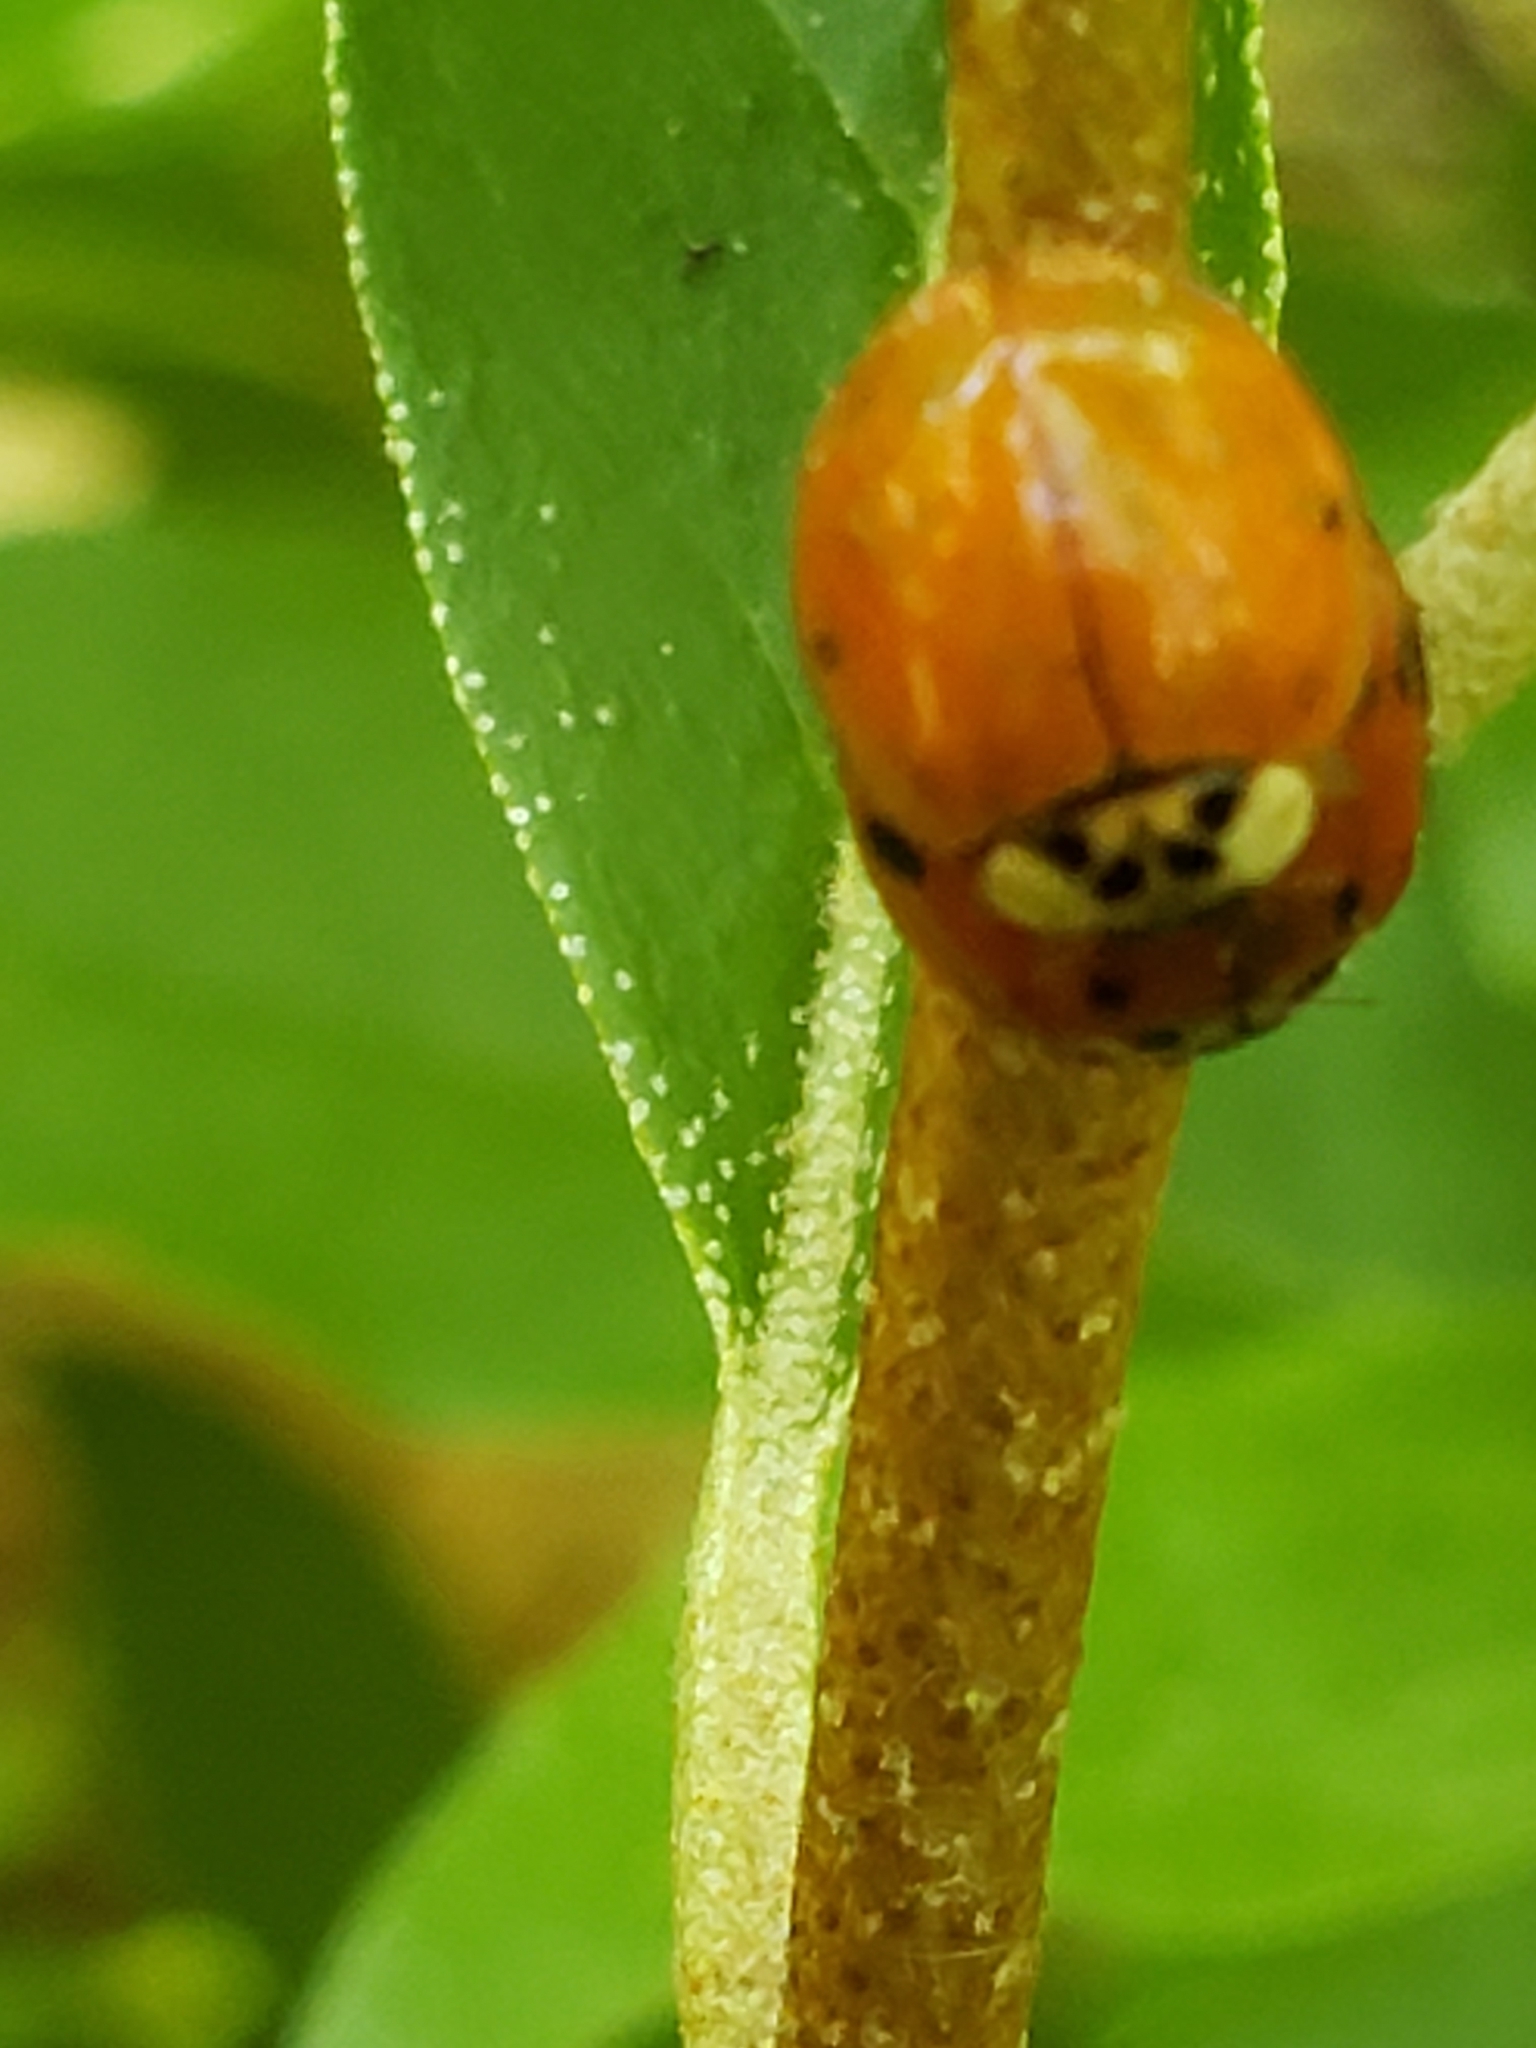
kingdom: Animalia
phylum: Arthropoda
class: Insecta
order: Coleoptera
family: Coccinellidae
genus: Harmonia
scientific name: Harmonia axyridis
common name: Harlequin ladybird
